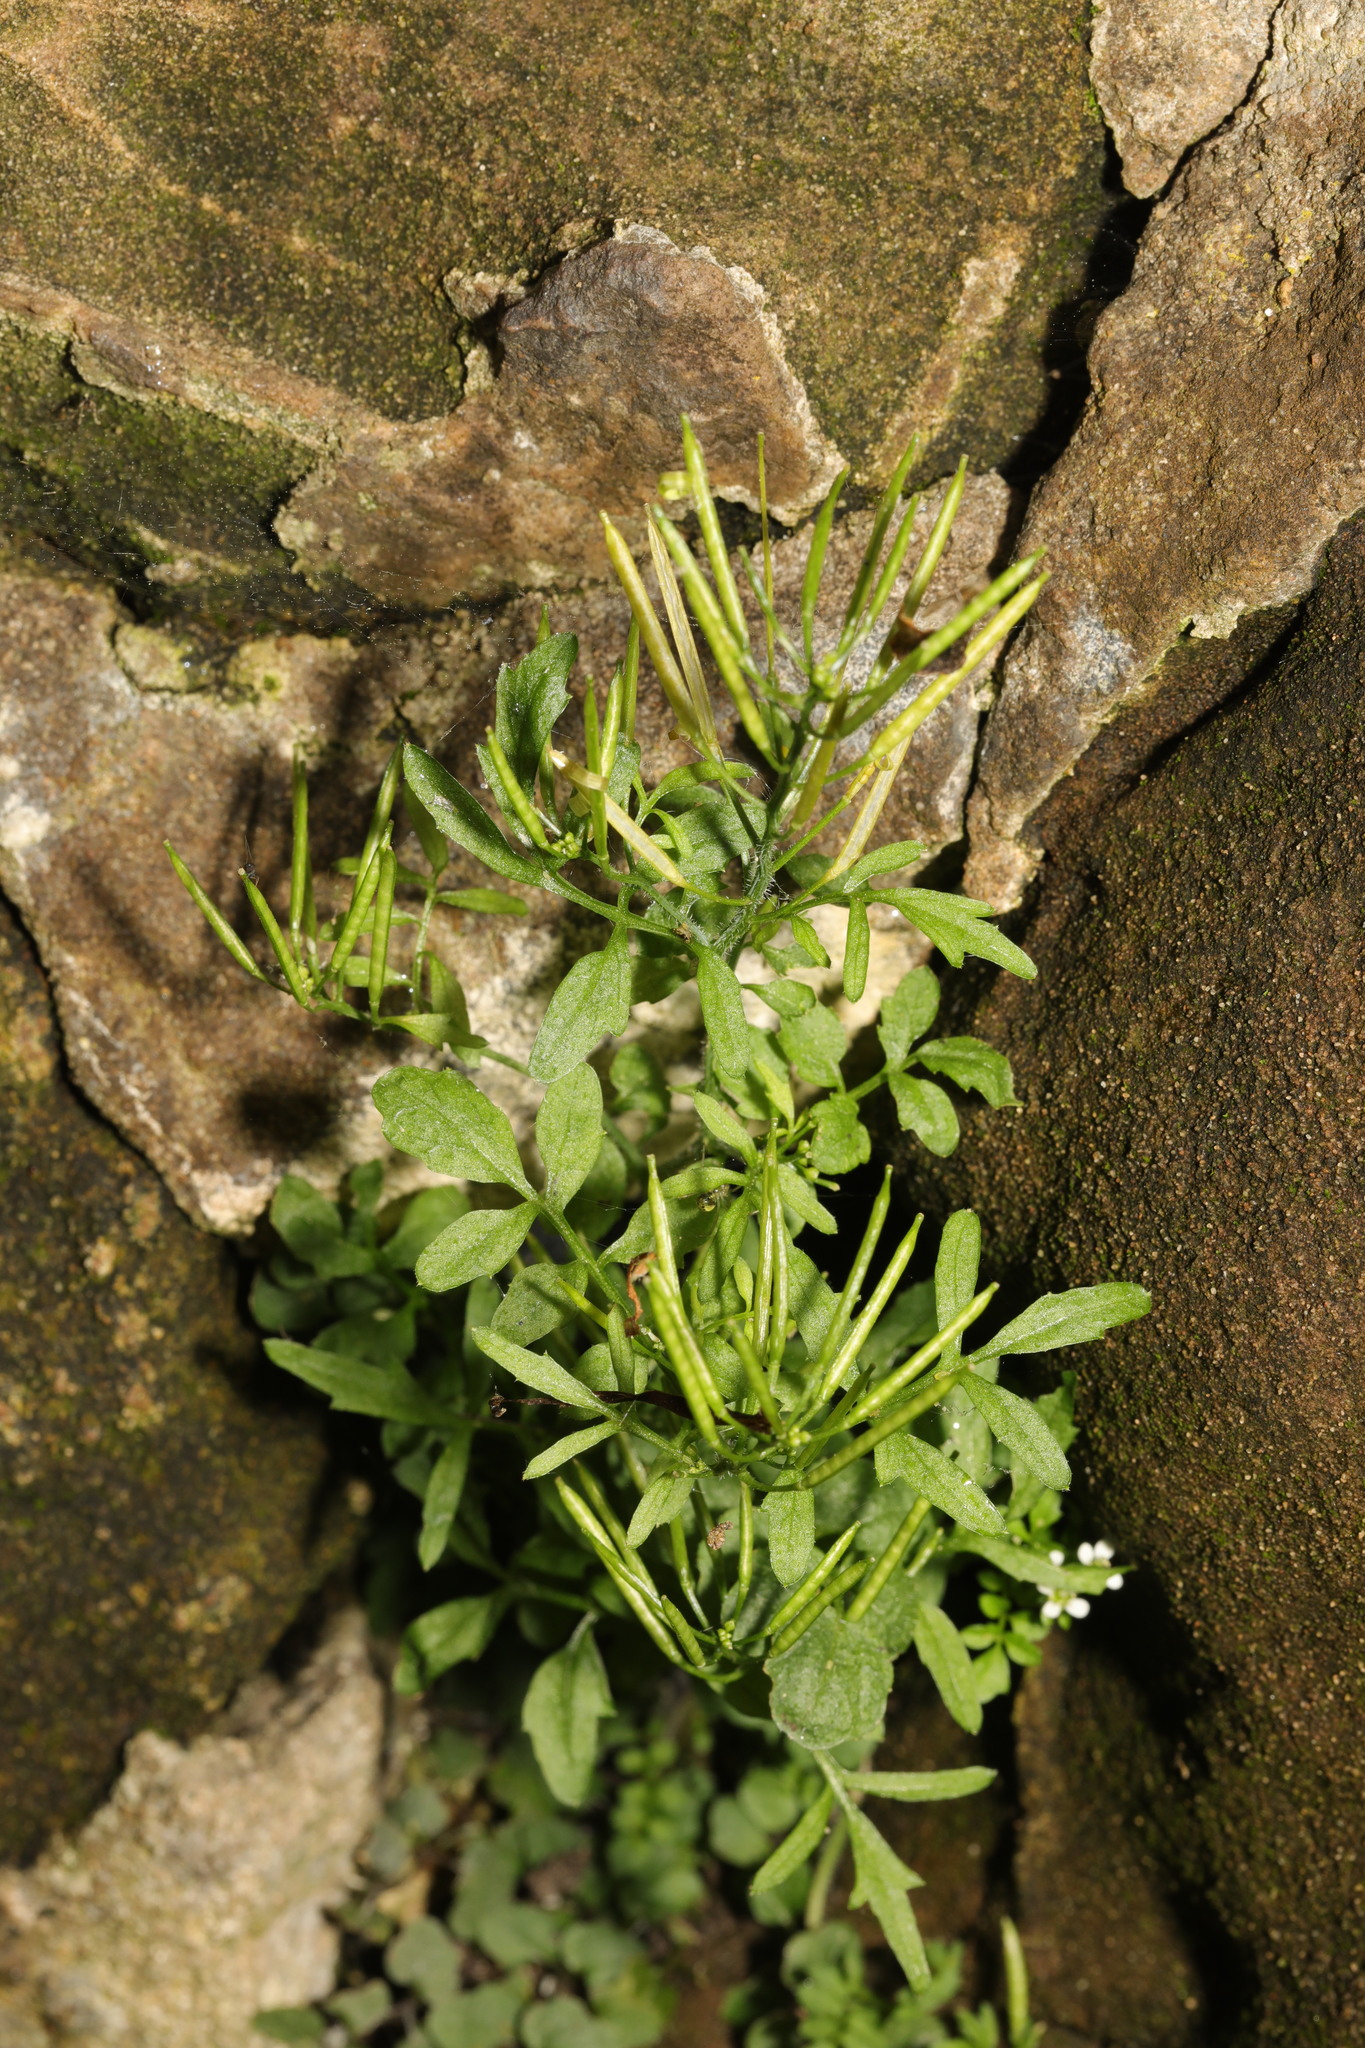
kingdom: Plantae
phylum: Tracheophyta
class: Magnoliopsida
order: Brassicales
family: Brassicaceae
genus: Cardamine
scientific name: Cardamine flexuosa
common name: Woodland bittercress
